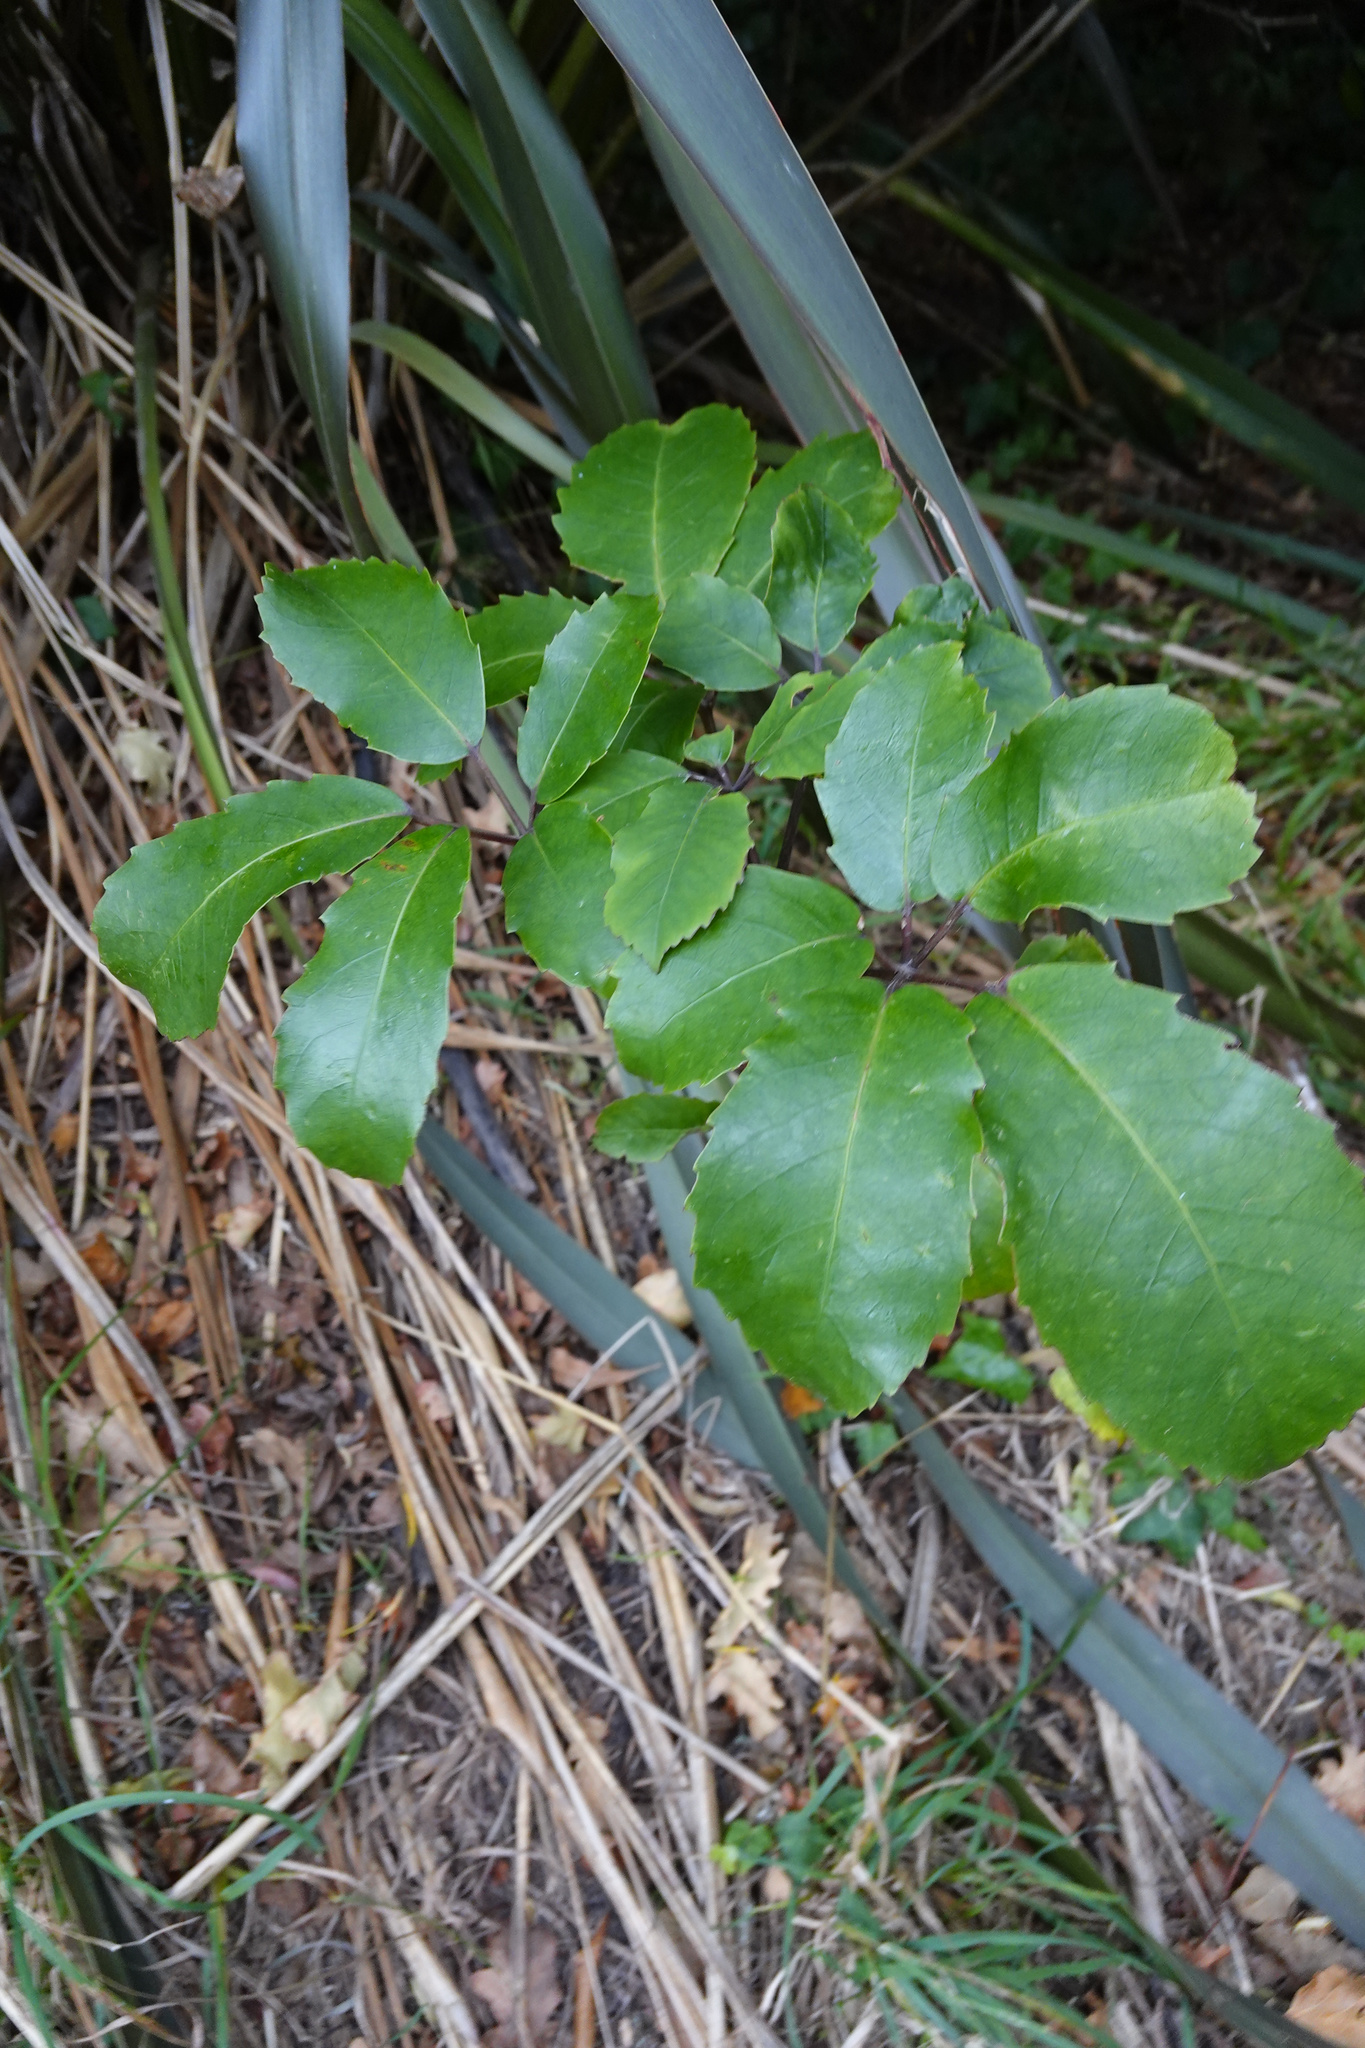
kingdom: Plantae
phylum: Tracheophyta
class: Magnoliopsida
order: Apiales
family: Araliaceae
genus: Neopanax
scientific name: Neopanax arboreus
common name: Five-fingers
